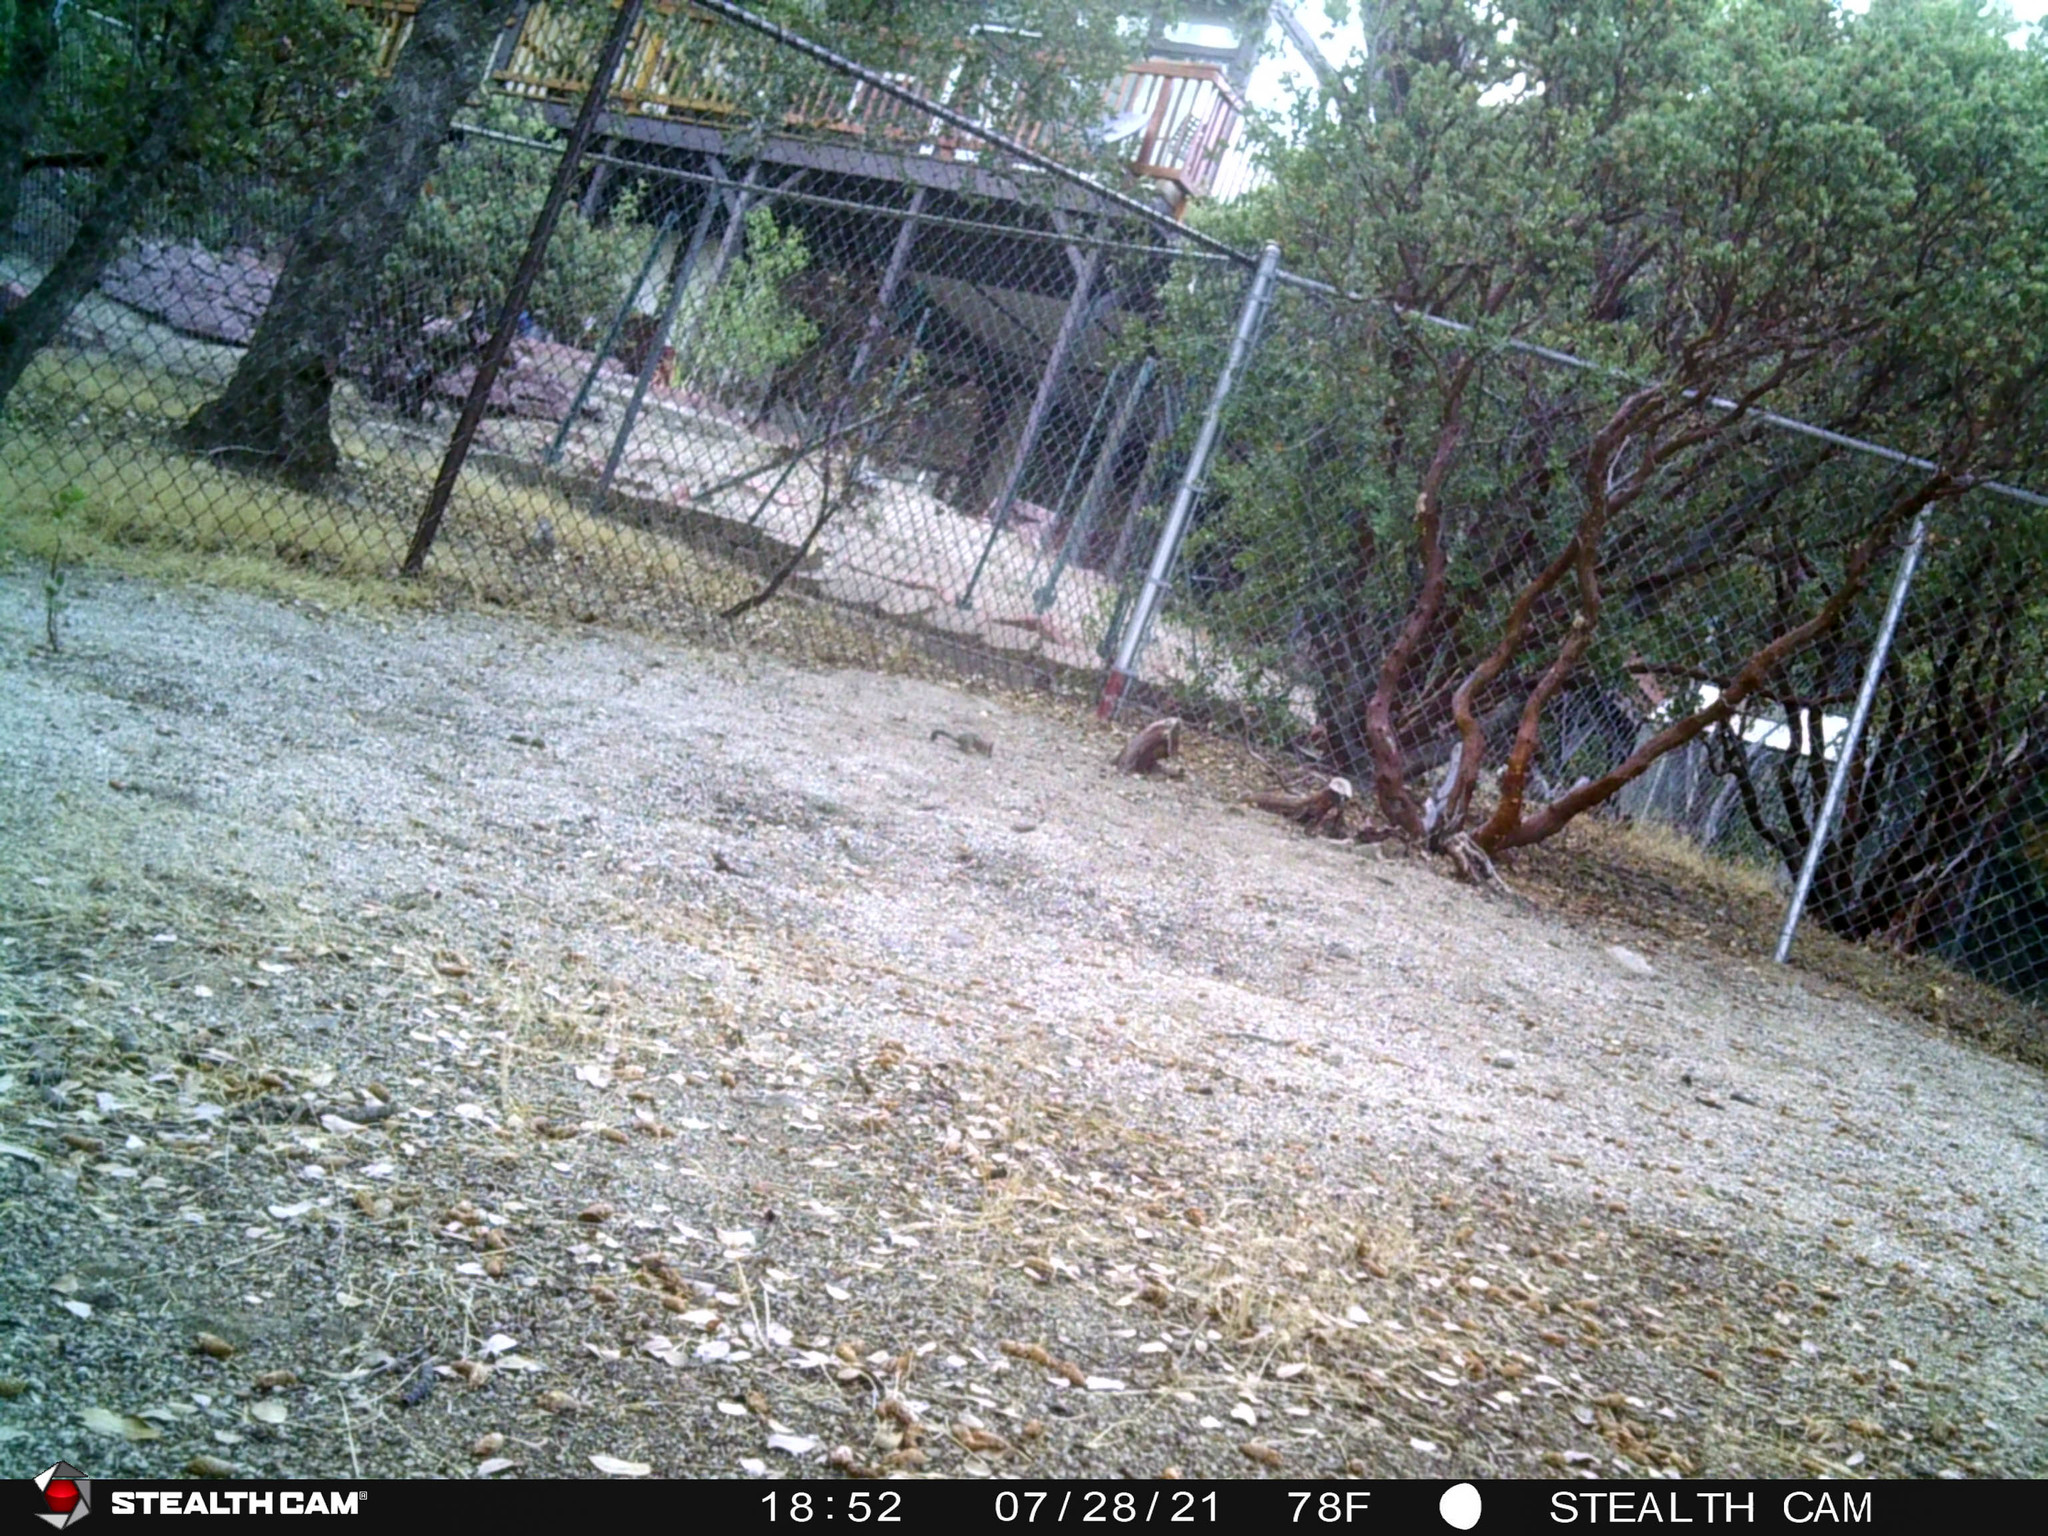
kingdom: Animalia
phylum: Chordata
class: Mammalia
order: Rodentia
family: Sciuridae
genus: Otospermophilus
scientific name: Otospermophilus beecheyi
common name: California ground squirrel
